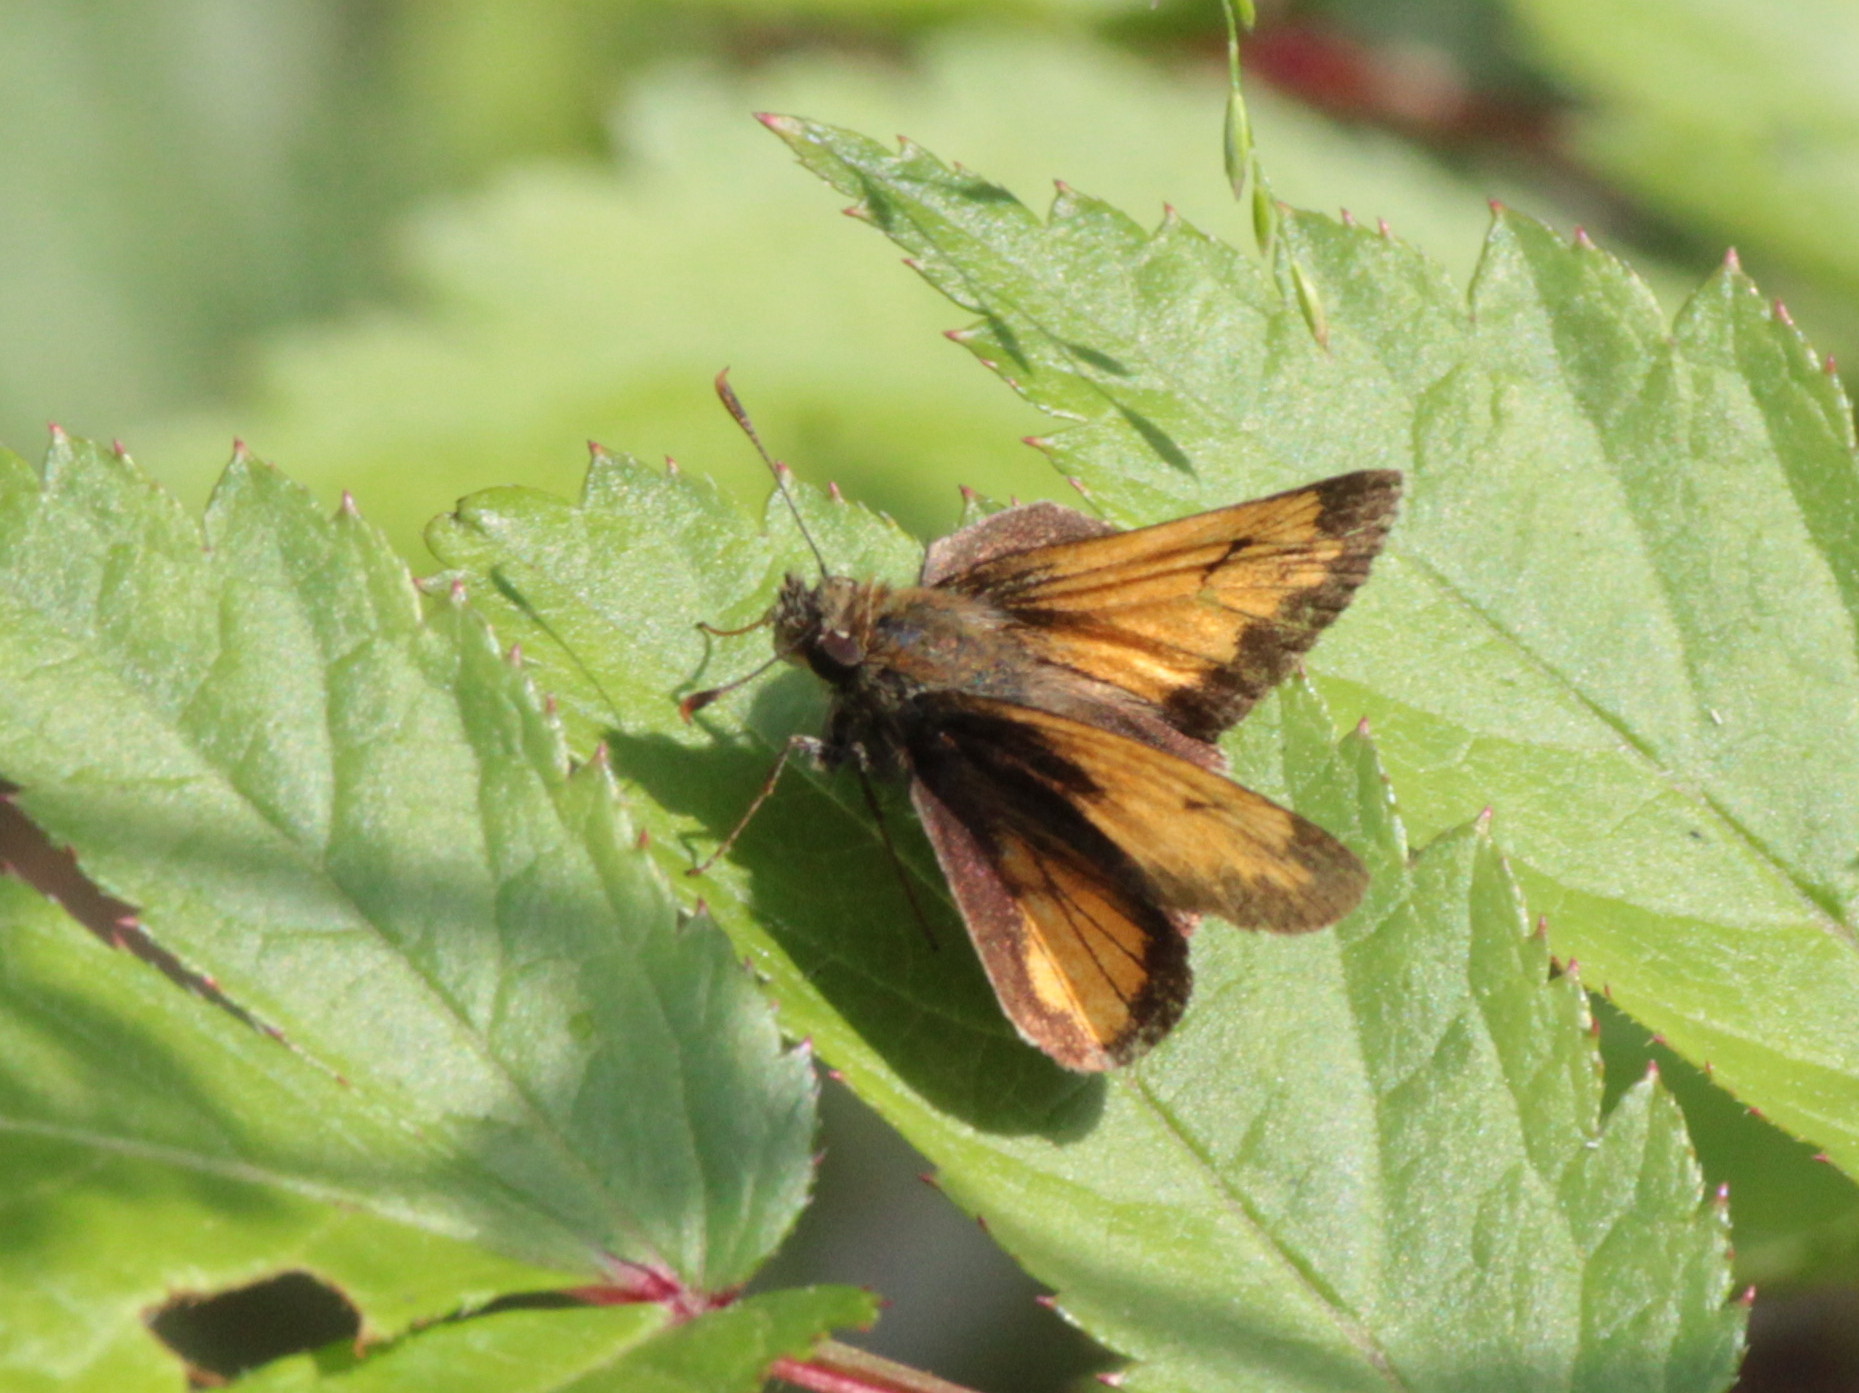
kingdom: Animalia
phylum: Arthropoda
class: Insecta
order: Lepidoptera
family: Hesperiidae
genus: Lon
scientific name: Lon hobomok
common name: Hobomok skipper
